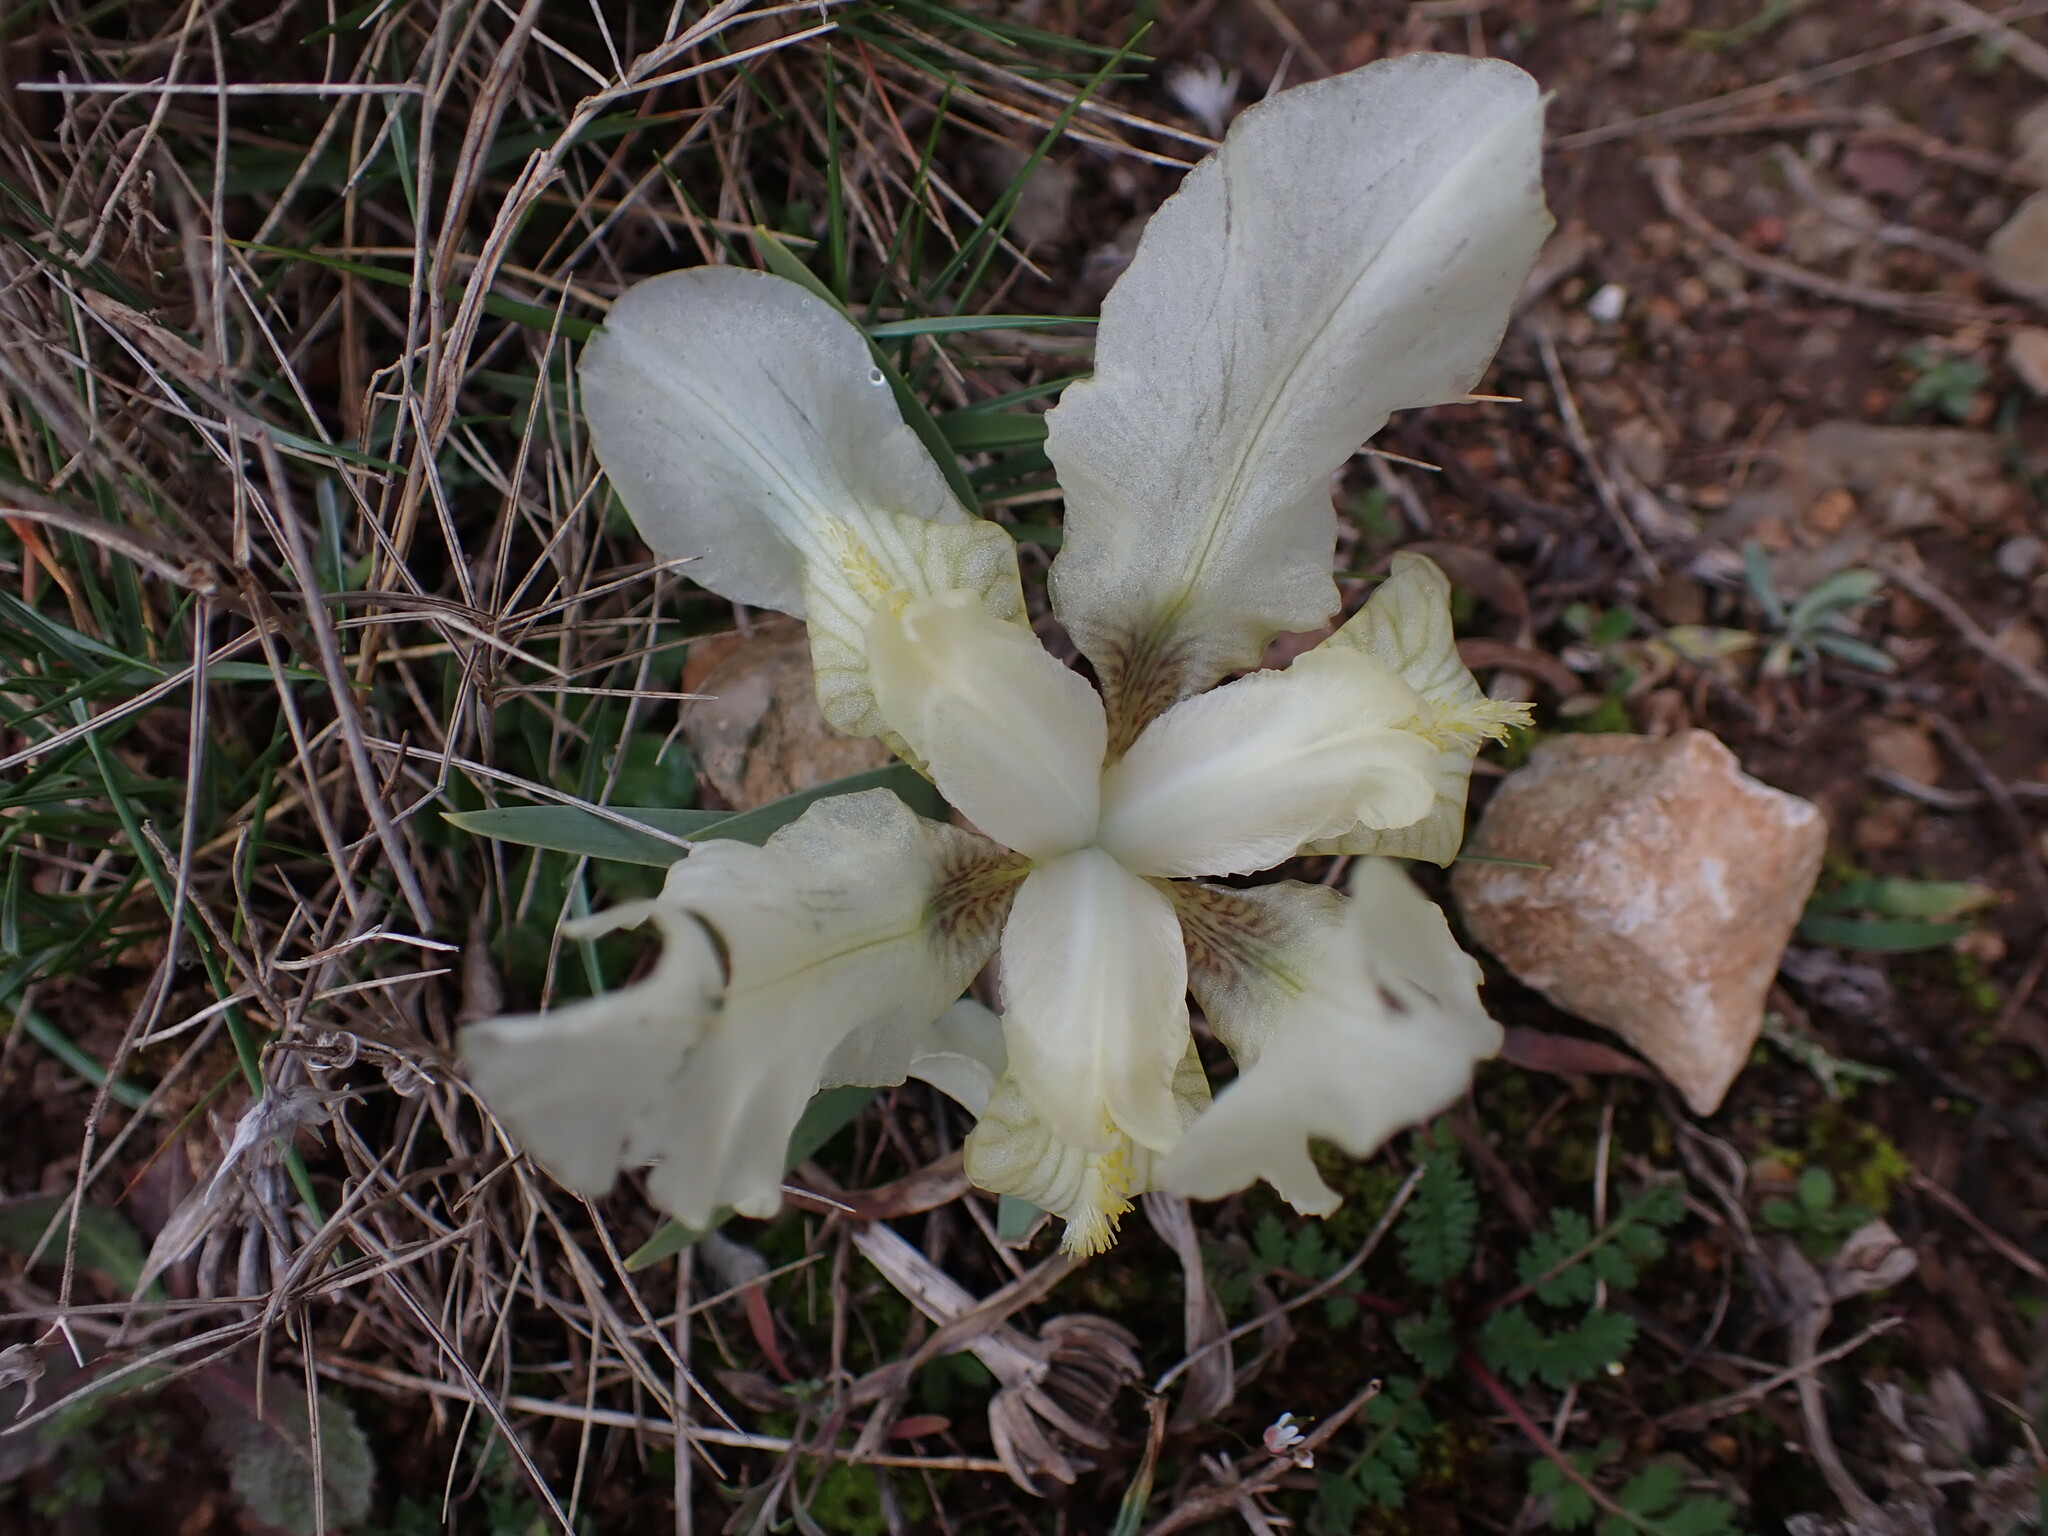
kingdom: Plantae
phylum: Tracheophyta
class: Liliopsida
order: Asparagales
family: Iridaceae
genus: Iris
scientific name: Iris lutescens
